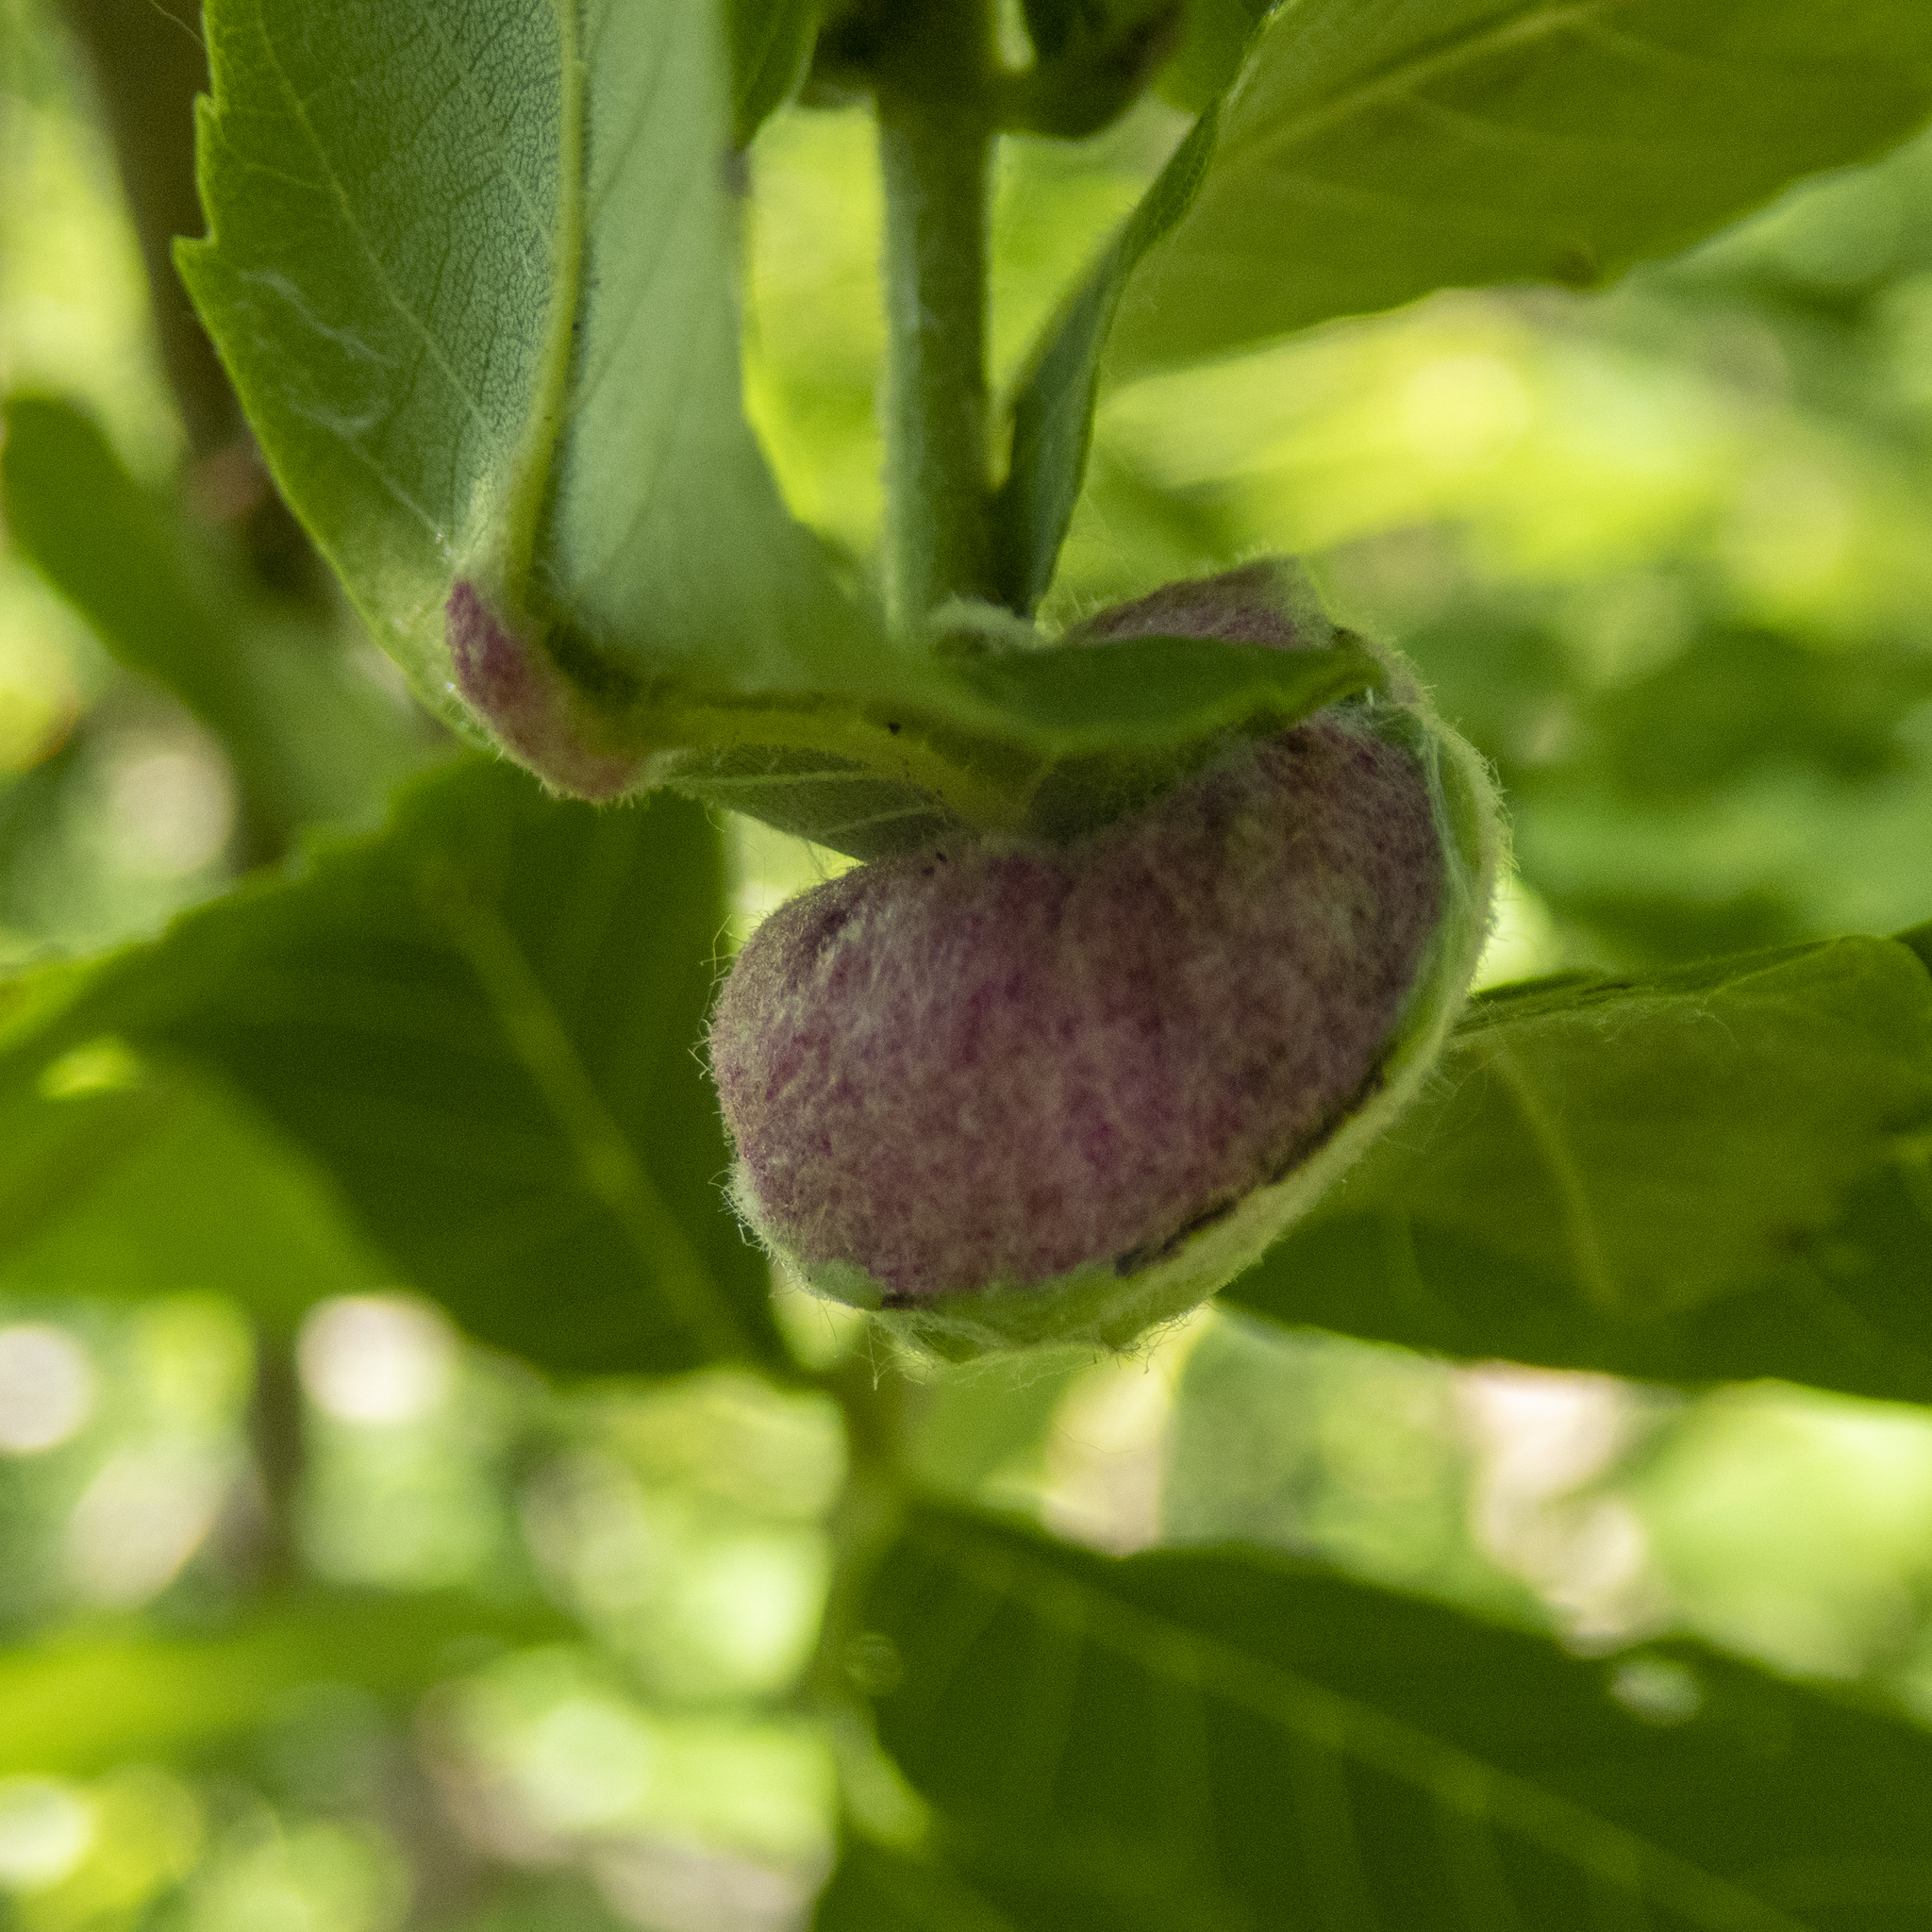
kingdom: Animalia
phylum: Arthropoda
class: Arachnida
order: Trombidiformes
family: Eriophyidae
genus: Aceria
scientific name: Aceria
